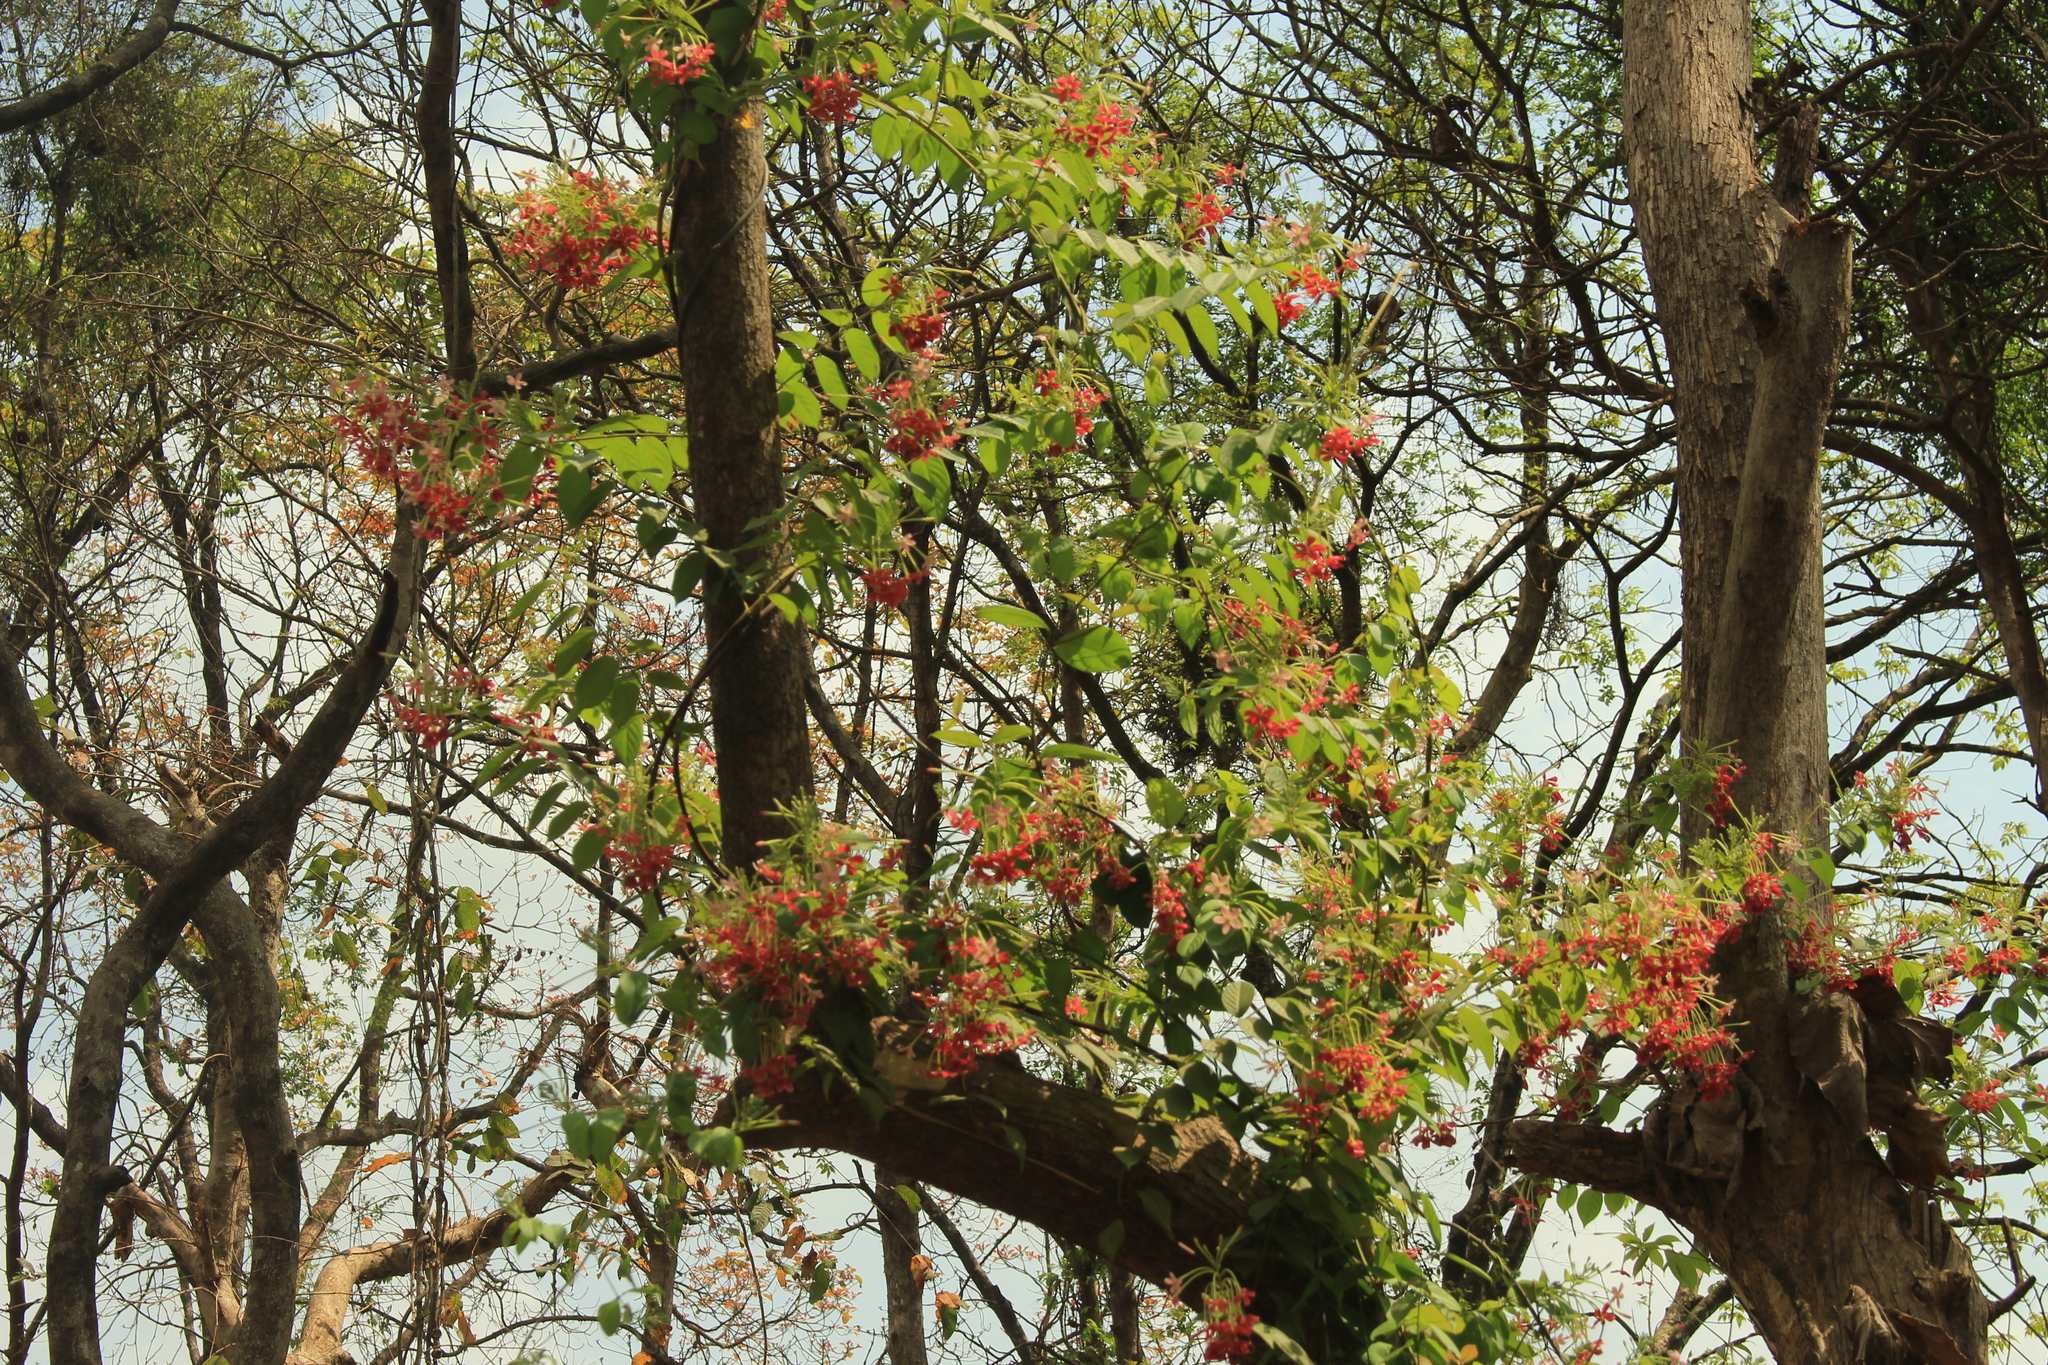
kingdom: Plantae
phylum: Tracheophyta
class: Magnoliopsida
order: Myrtales
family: Combretaceae
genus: Combretum
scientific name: Combretum indicum
